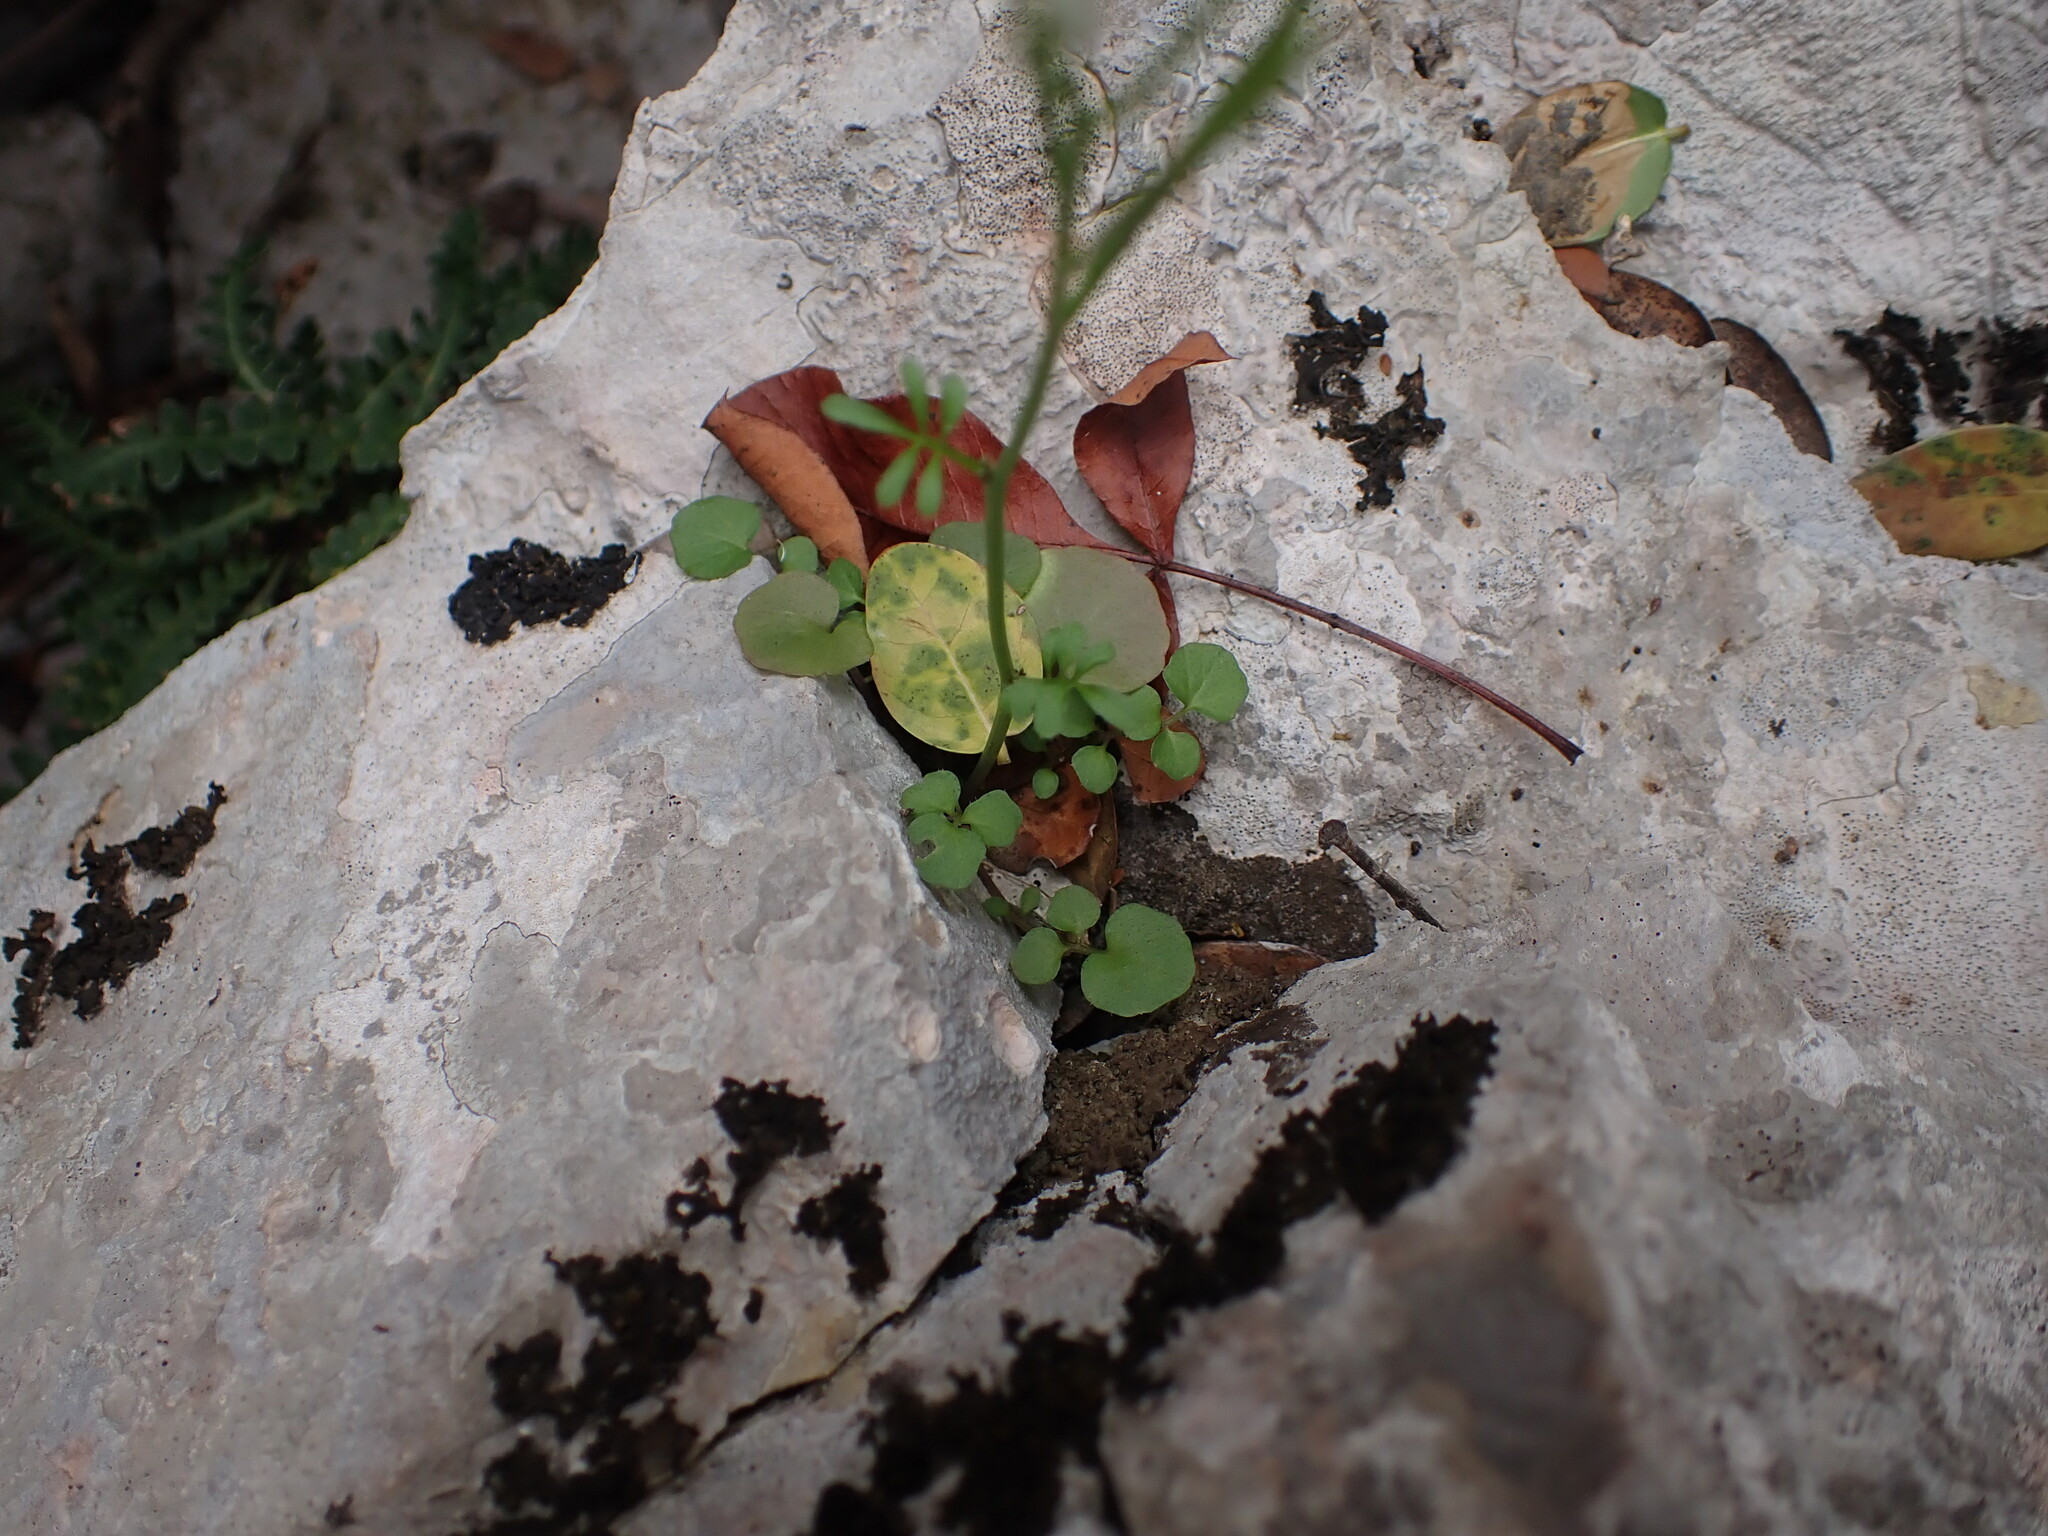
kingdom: Plantae
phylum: Tracheophyta
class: Magnoliopsida
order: Brassicales
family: Brassicaceae
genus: Cardamine
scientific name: Cardamine hirsuta
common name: Hairy bittercress
